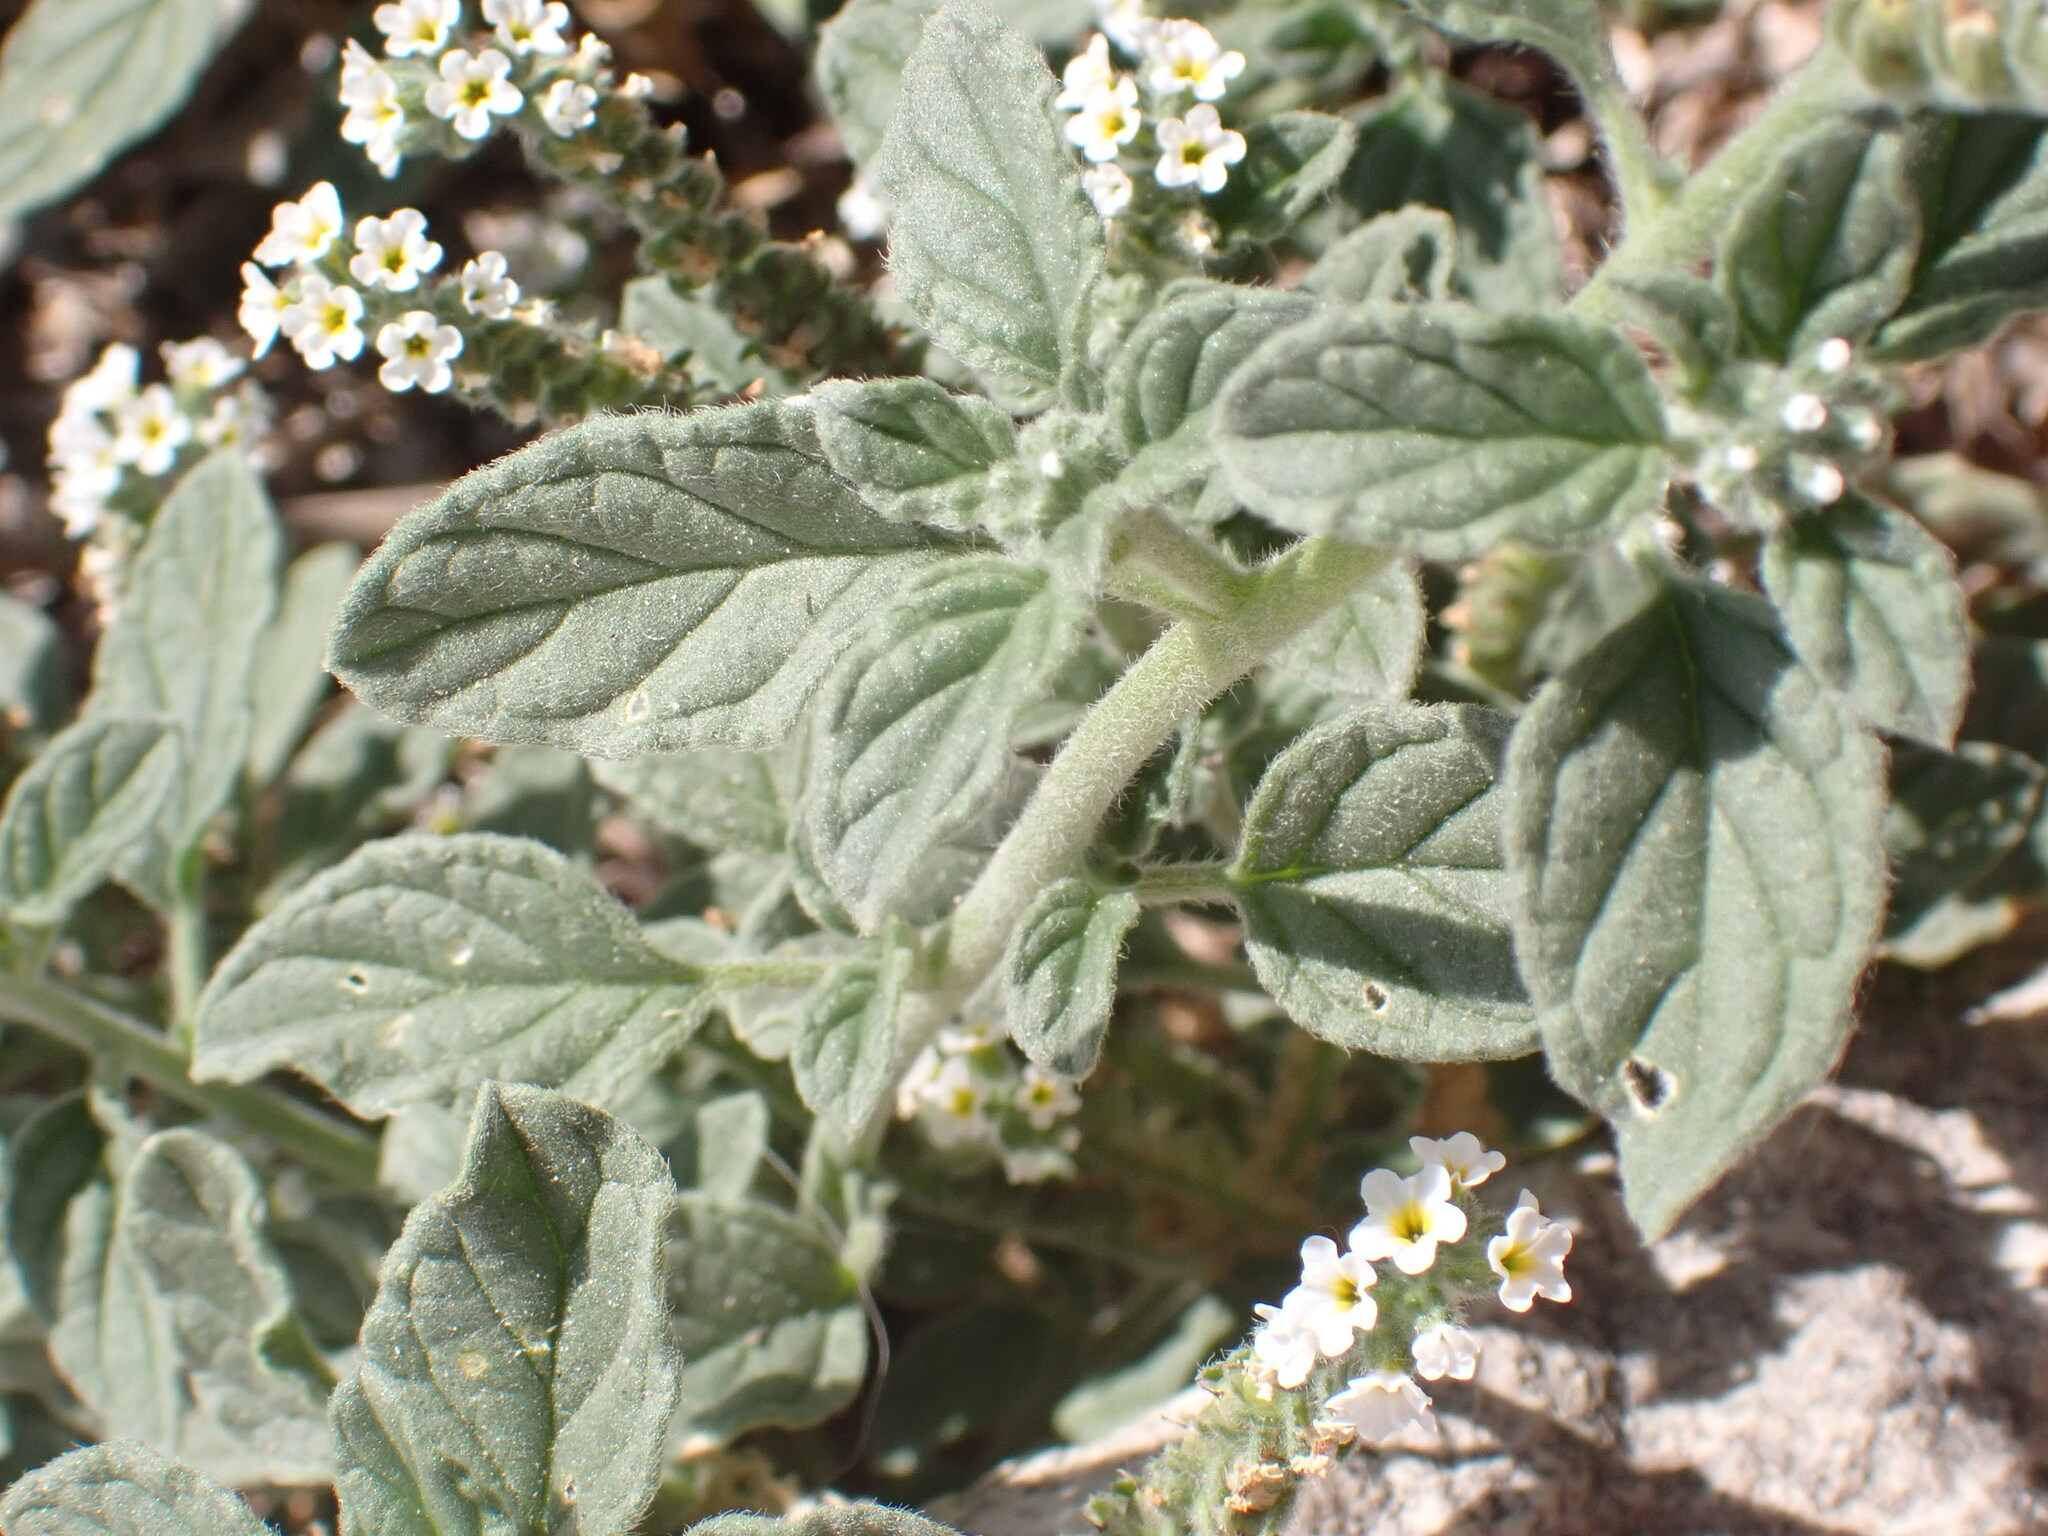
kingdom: Plantae
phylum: Tracheophyta
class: Magnoliopsida
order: Boraginales
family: Heliotropiaceae
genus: Heliotropium
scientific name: Heliotropium europaeum
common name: European heliotrope
